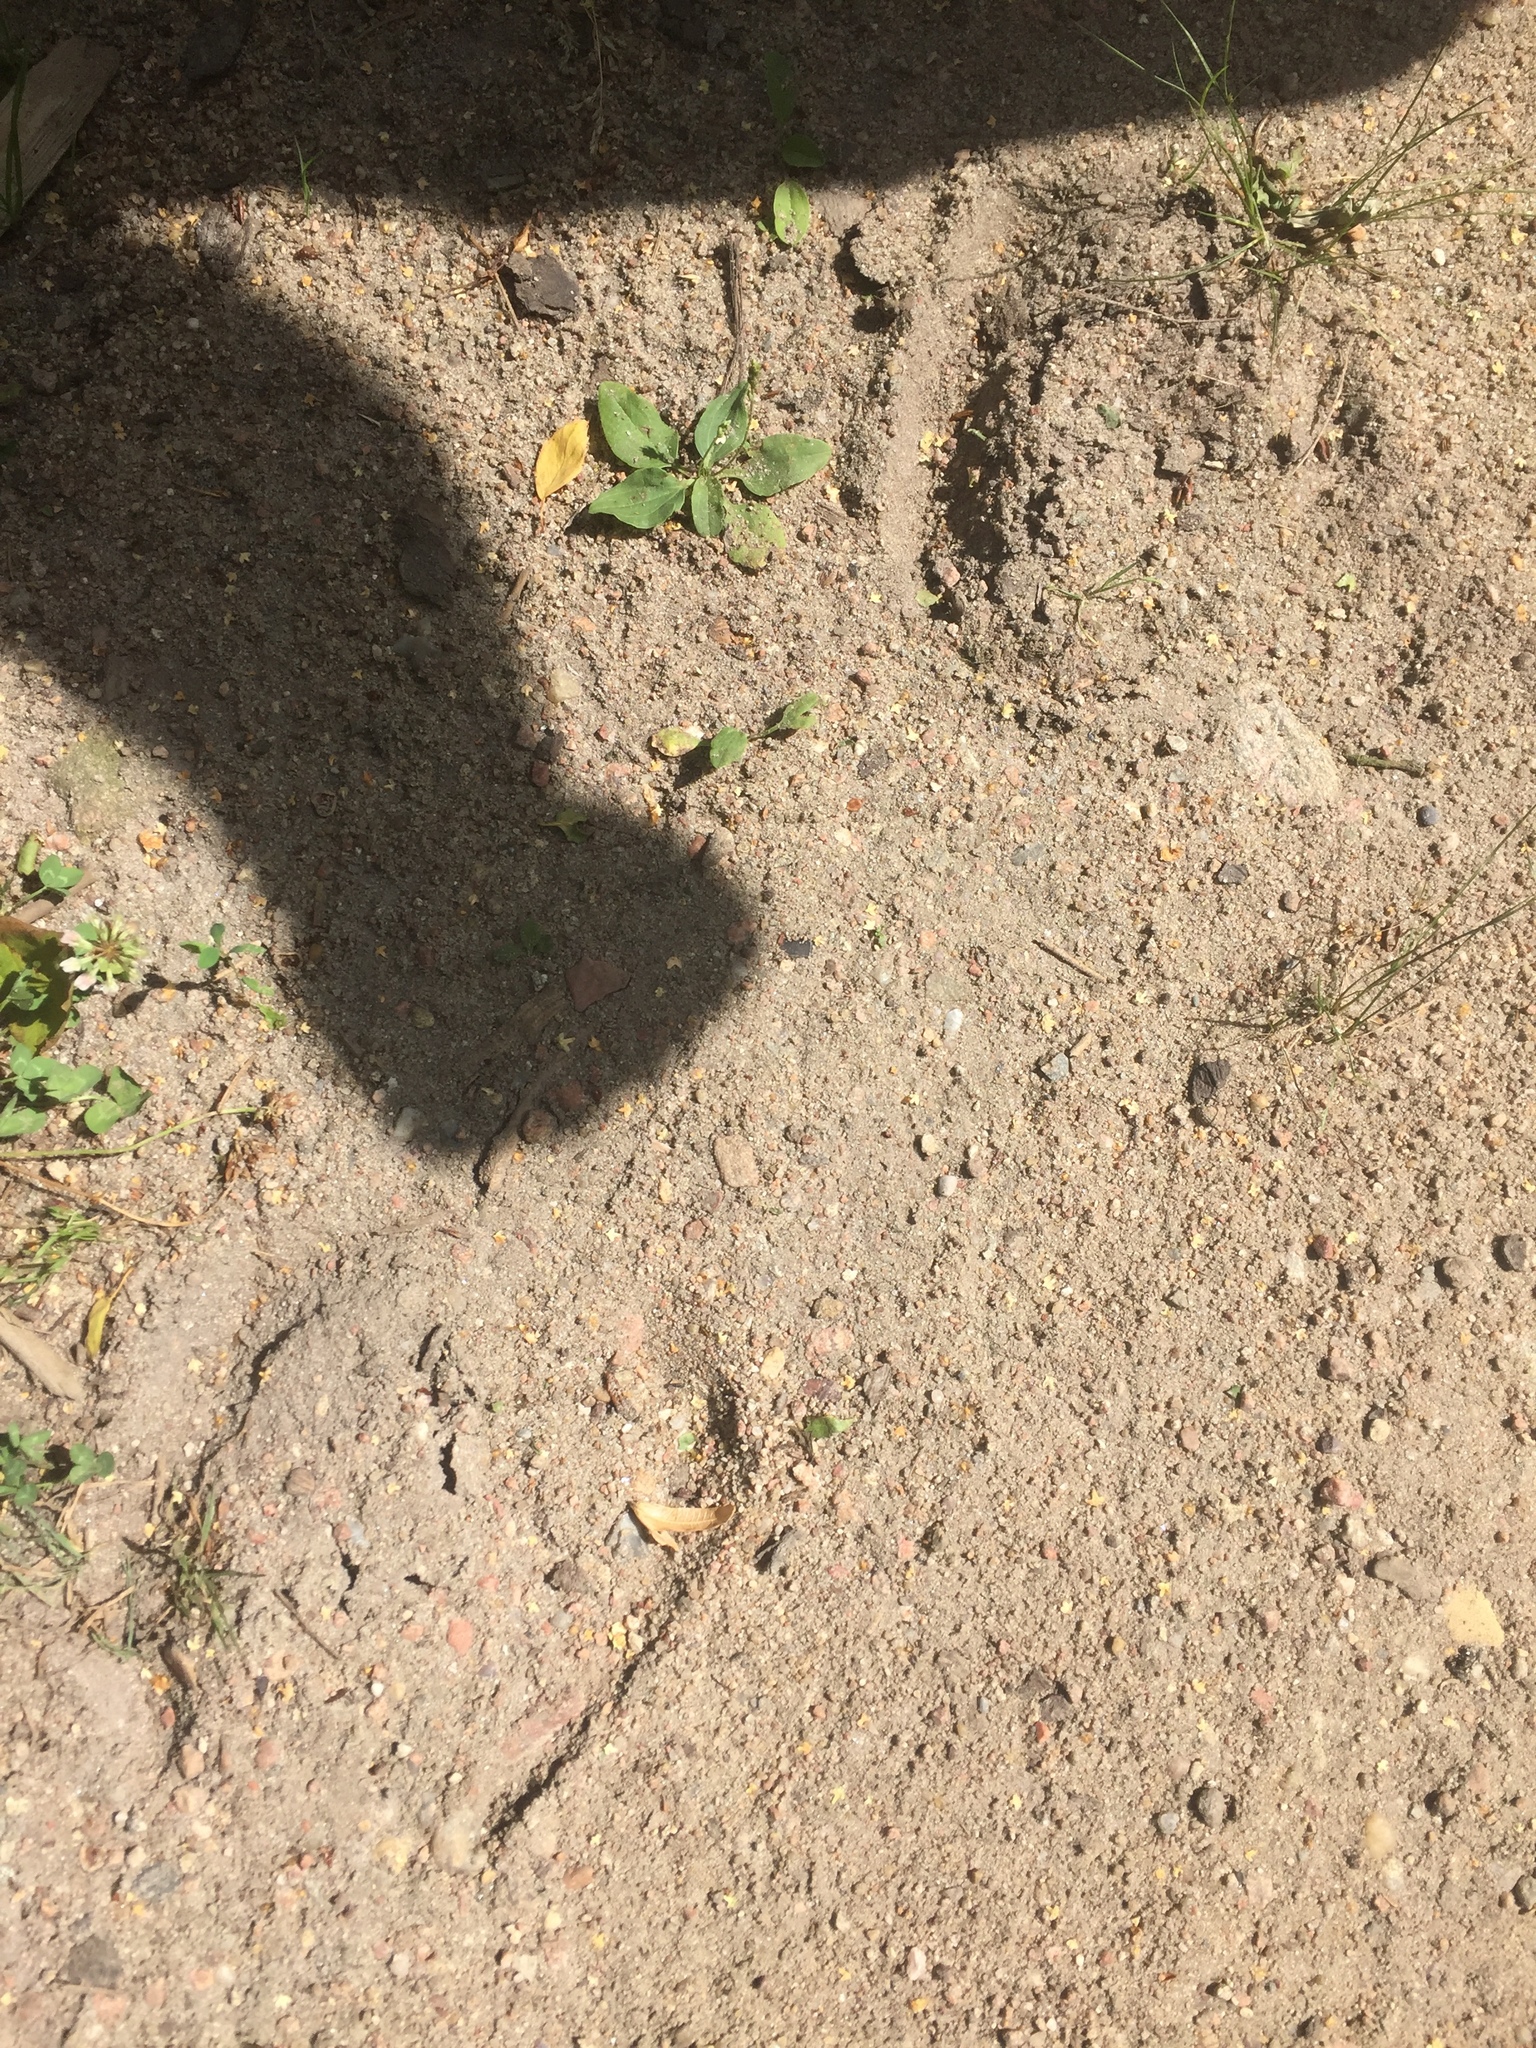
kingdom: Animalia
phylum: Chordata
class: Mammalia
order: Artiodactyla
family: Bovidae
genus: Bison
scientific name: Bison bonasus
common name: European bison
